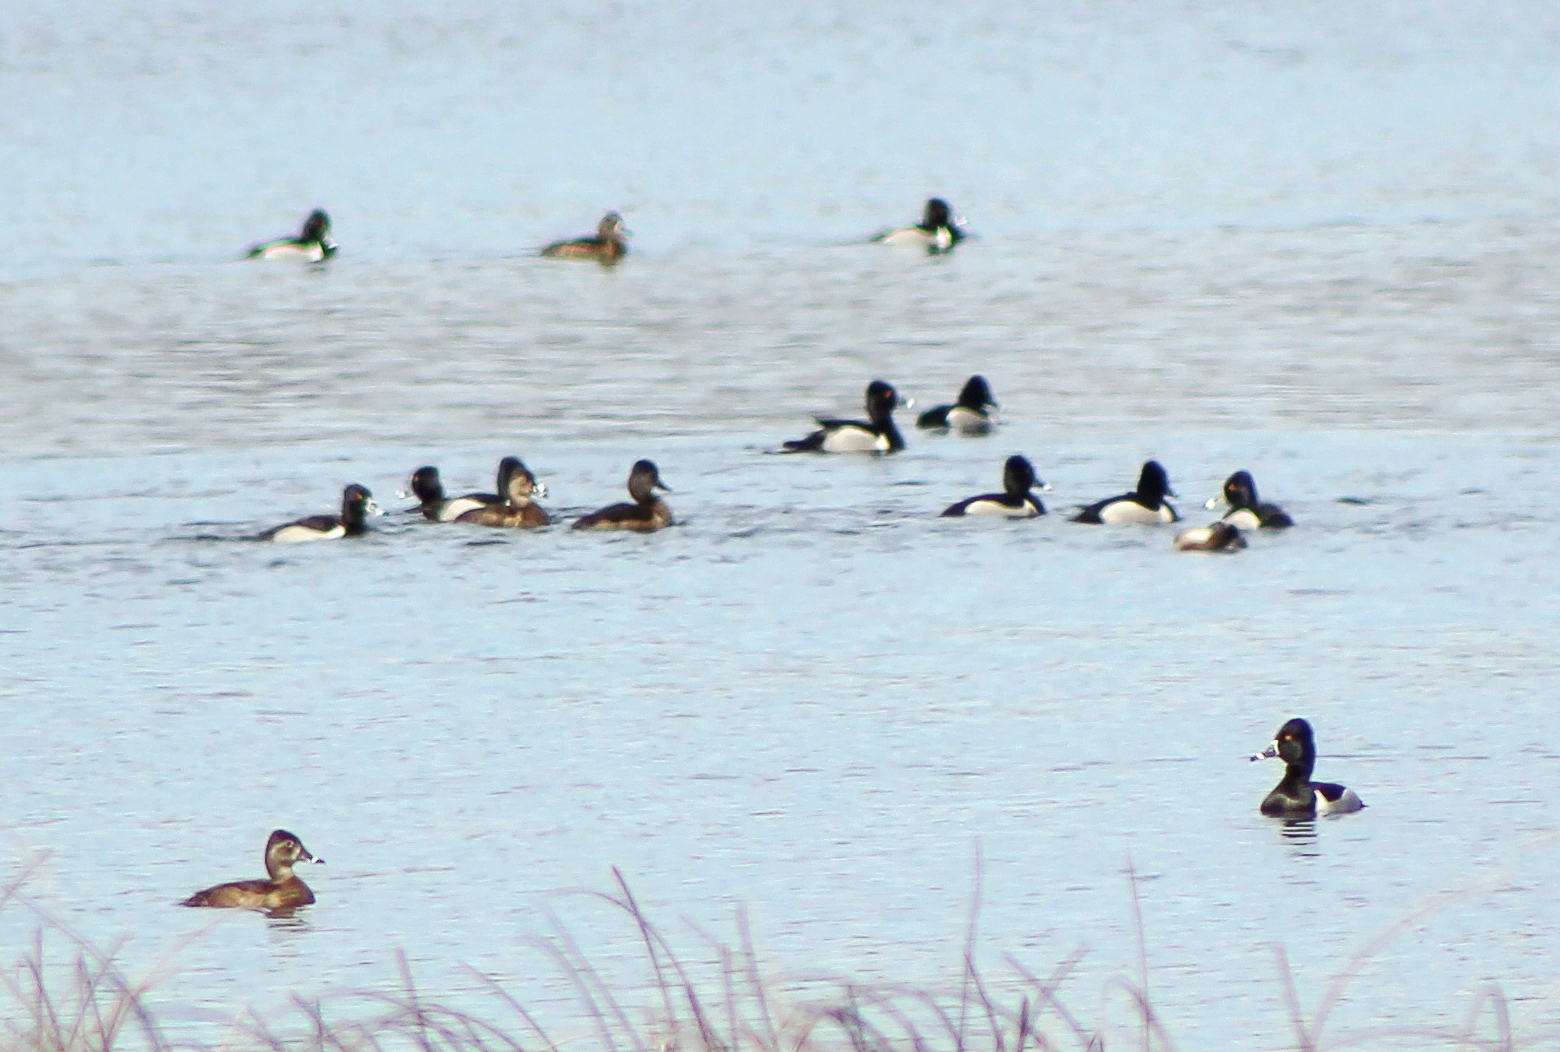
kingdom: Animalia
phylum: Chordata
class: Aves
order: Anseriformes
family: Anatidae
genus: Aythya
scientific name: Aythya collaris
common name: Ring-necked duck
